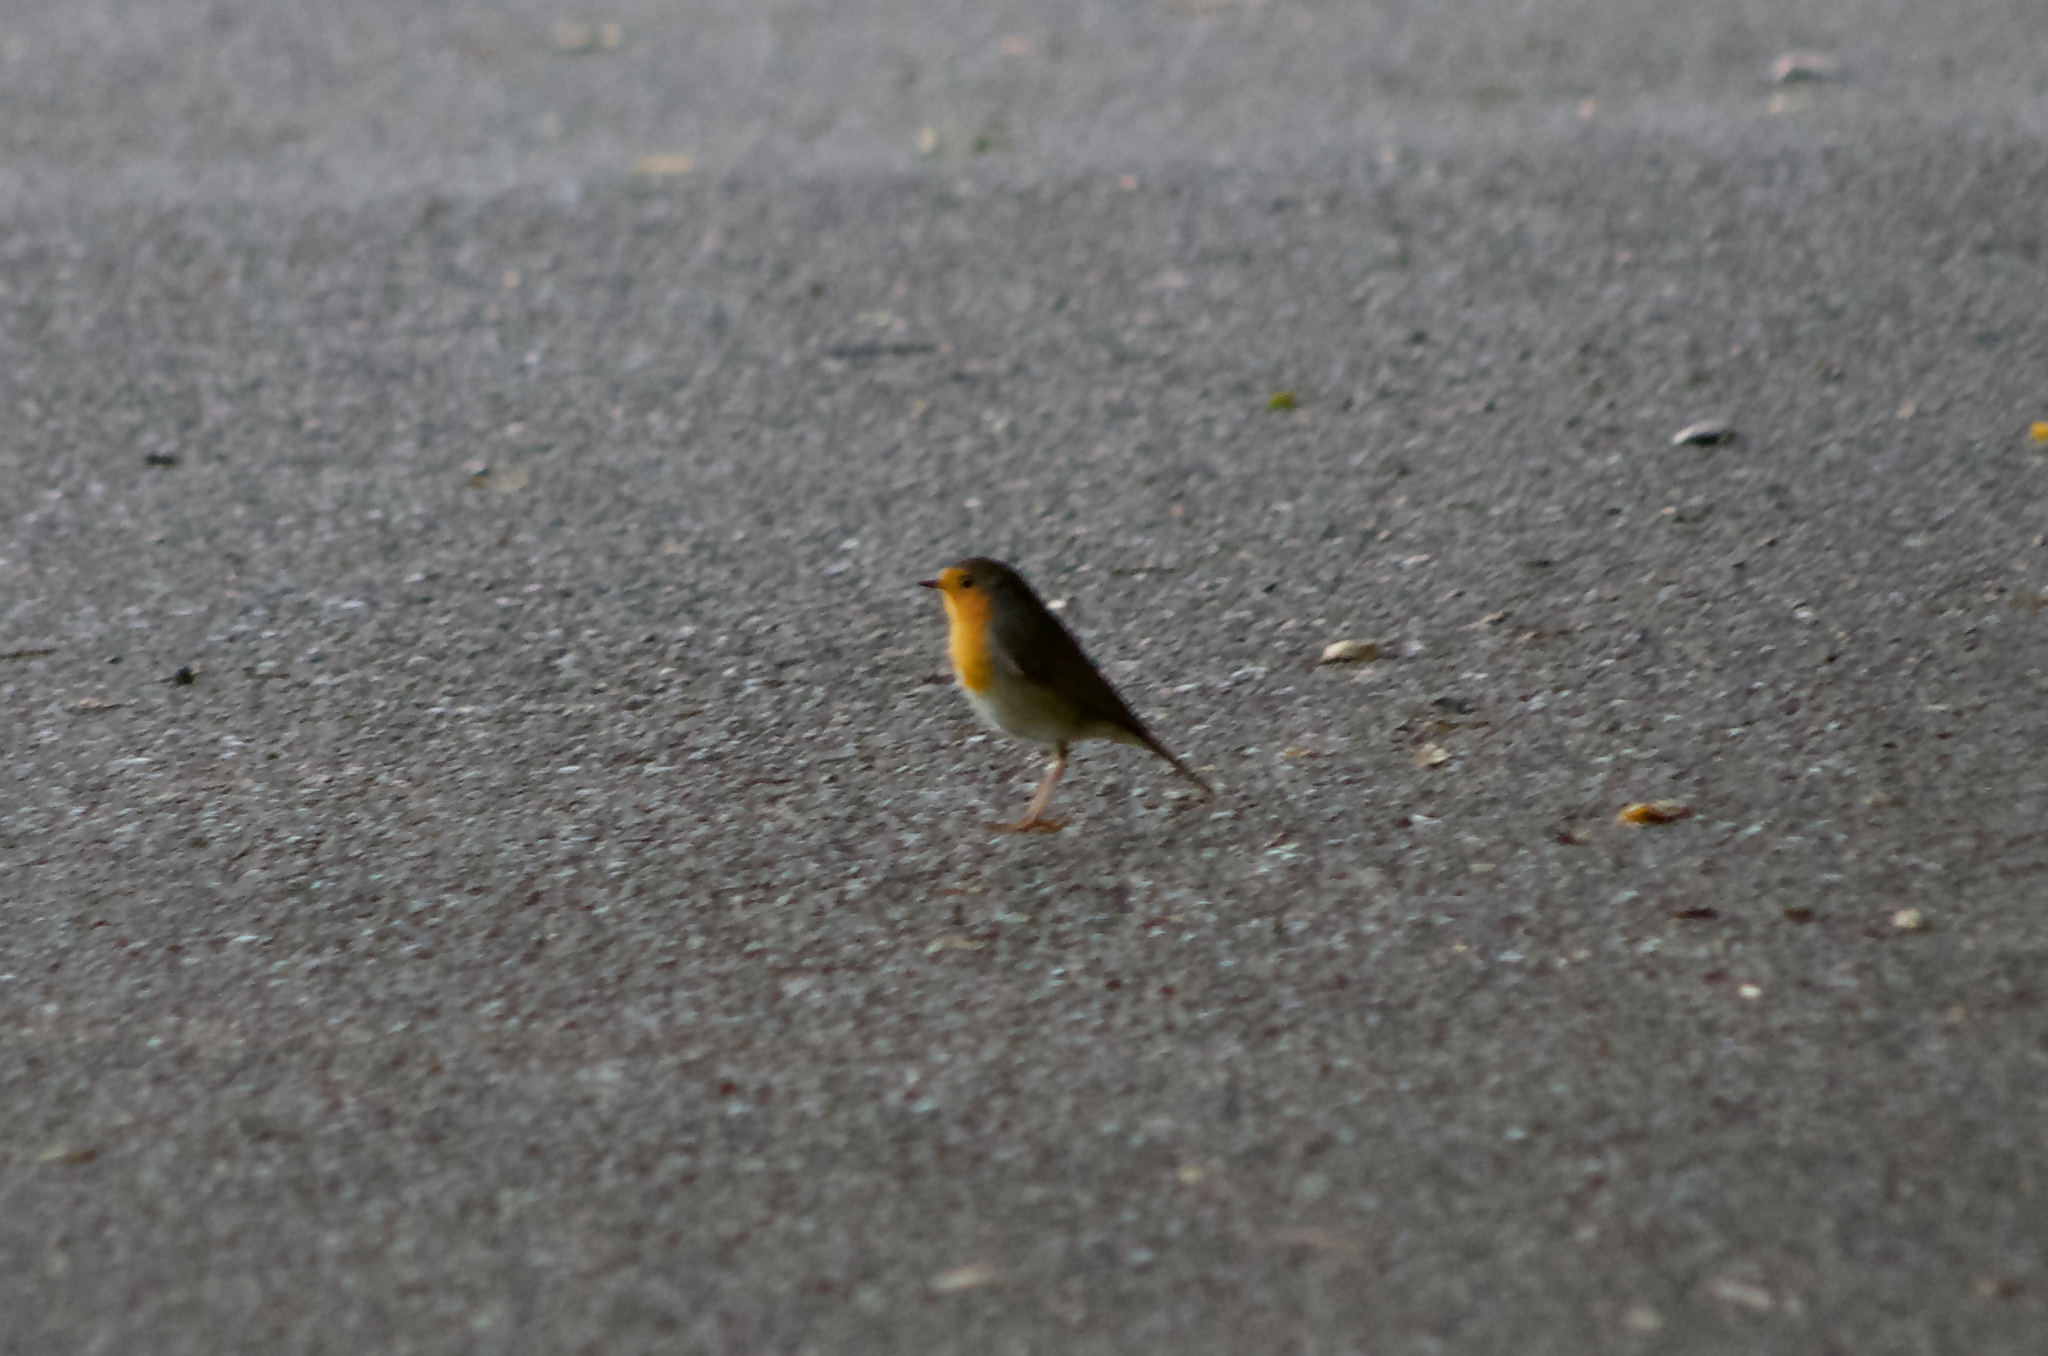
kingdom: Animalia
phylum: Chordata
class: Aves
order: Passeriformes
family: Muscicapidae
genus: Erithacus
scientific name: Erithacus rubecula
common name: European robin
